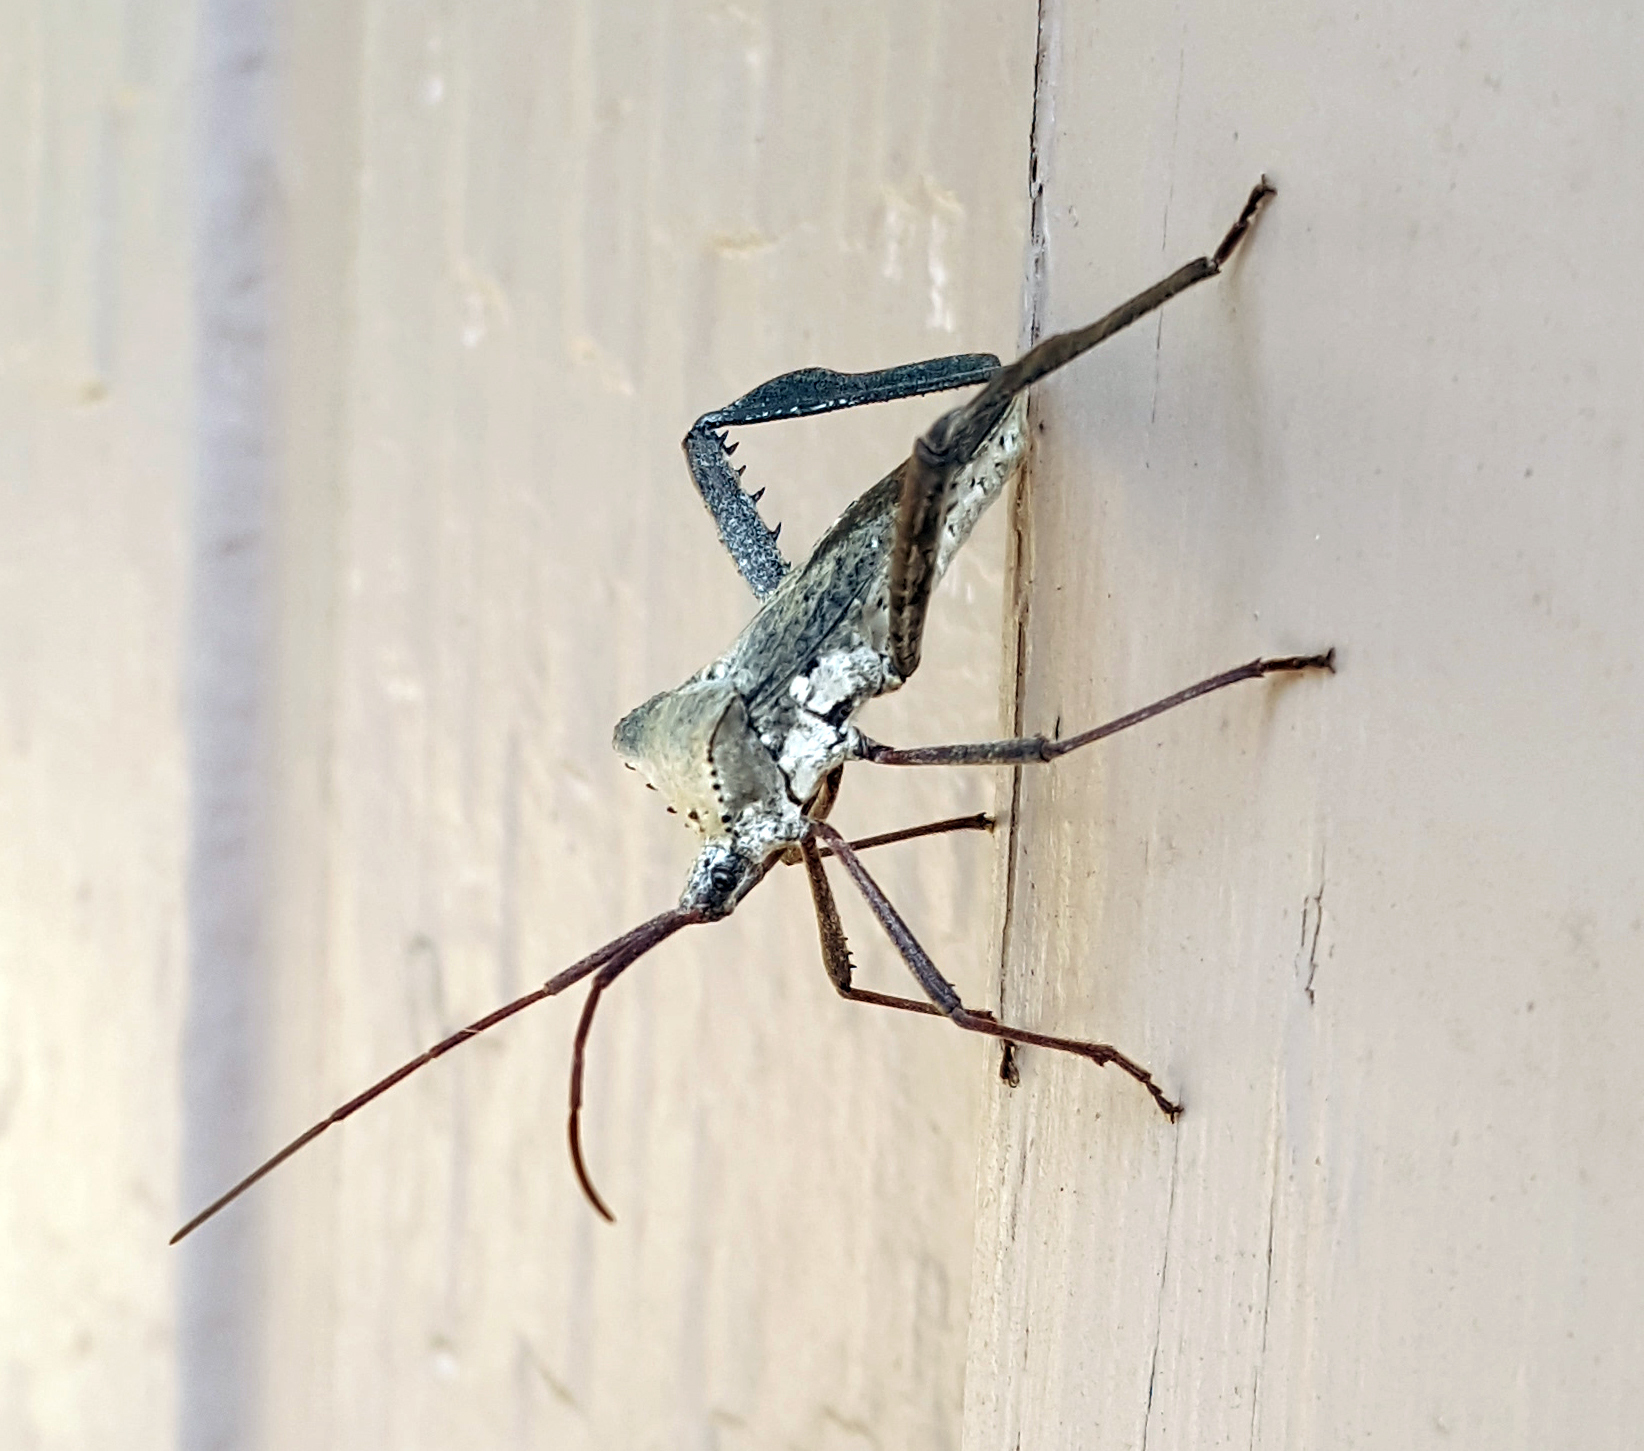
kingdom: Animalia
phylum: Arthropoda
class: Insecta
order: Hemiptera
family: Coreidae
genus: Acanthocephala
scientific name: Acanthocephala declivis
